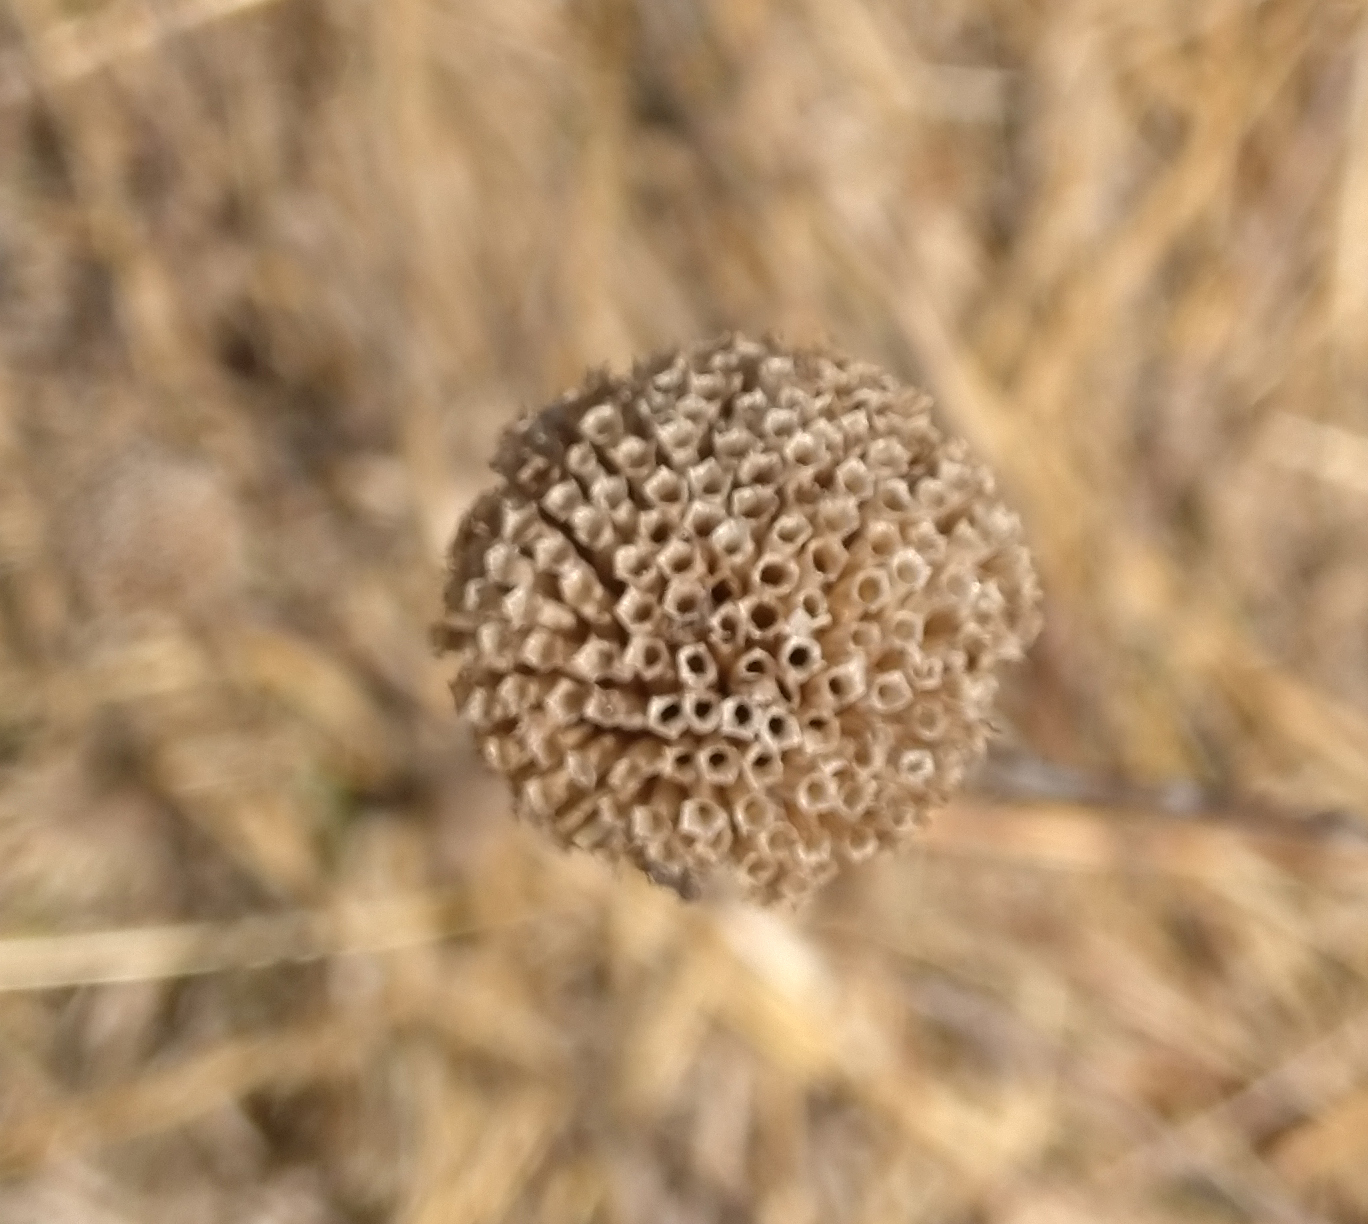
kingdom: Plantae
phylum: Tracheophyta
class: Magnoliopsida
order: Lamiales
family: Lamiaceae
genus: Monarda
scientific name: Monarda fistulosa
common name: Purple beebalm
